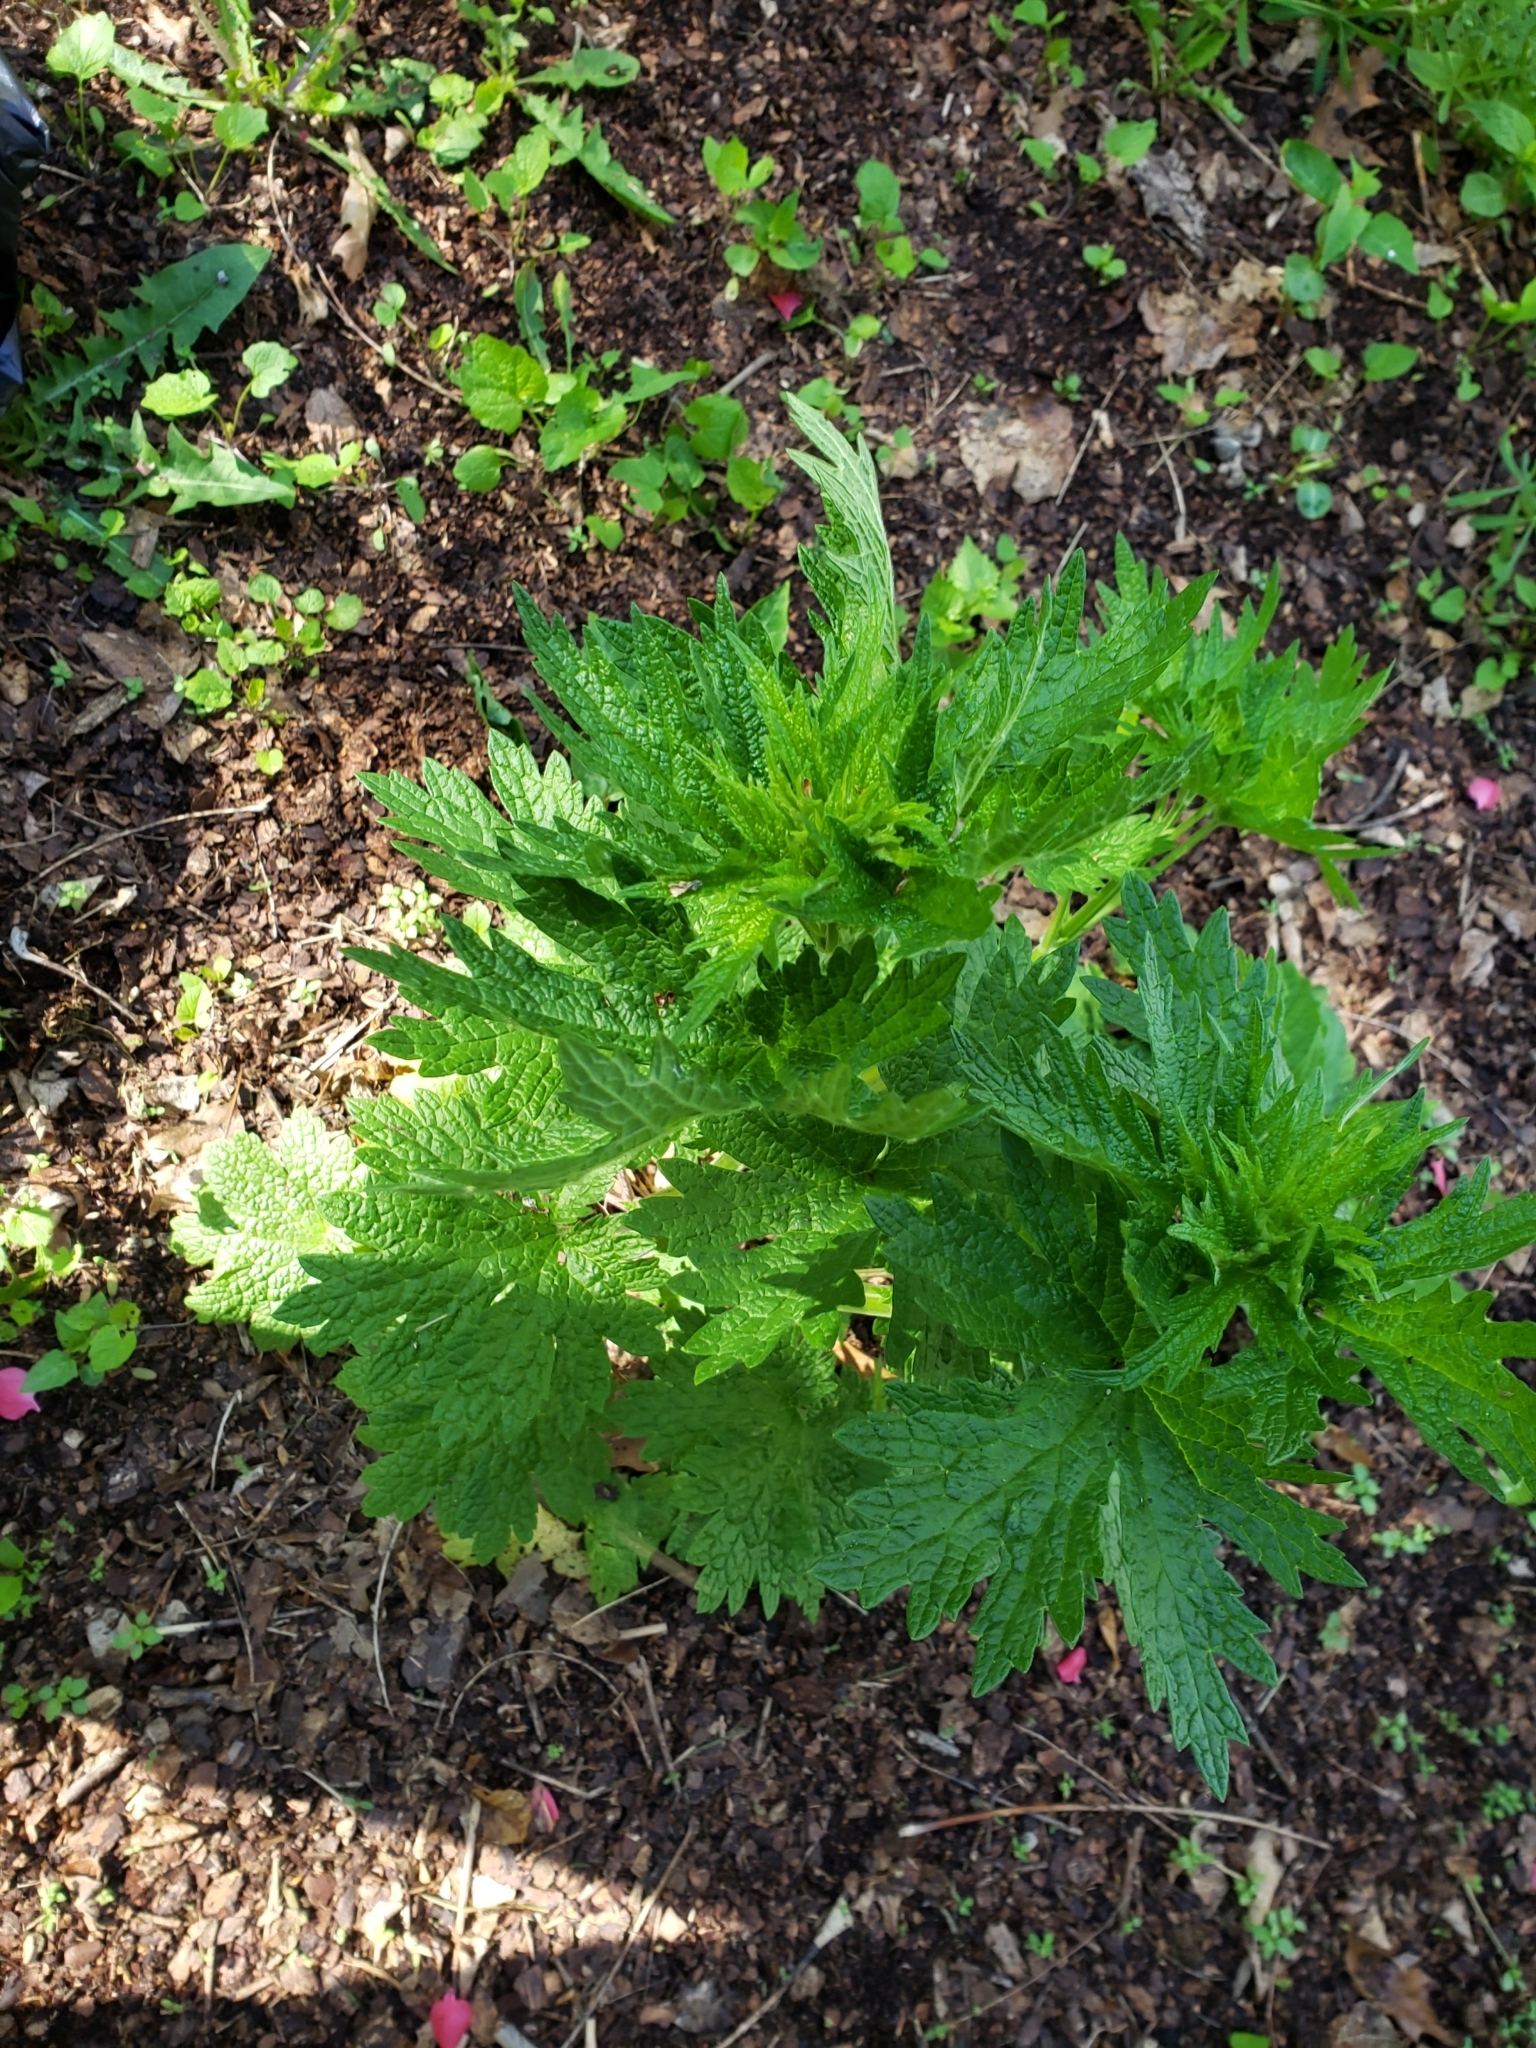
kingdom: Plantae
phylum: Tracheophyta
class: Magnoliopsida
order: Lamiales
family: Lamiaceae
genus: Leonurus
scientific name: Leonurus cardiaca
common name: Motherwort
